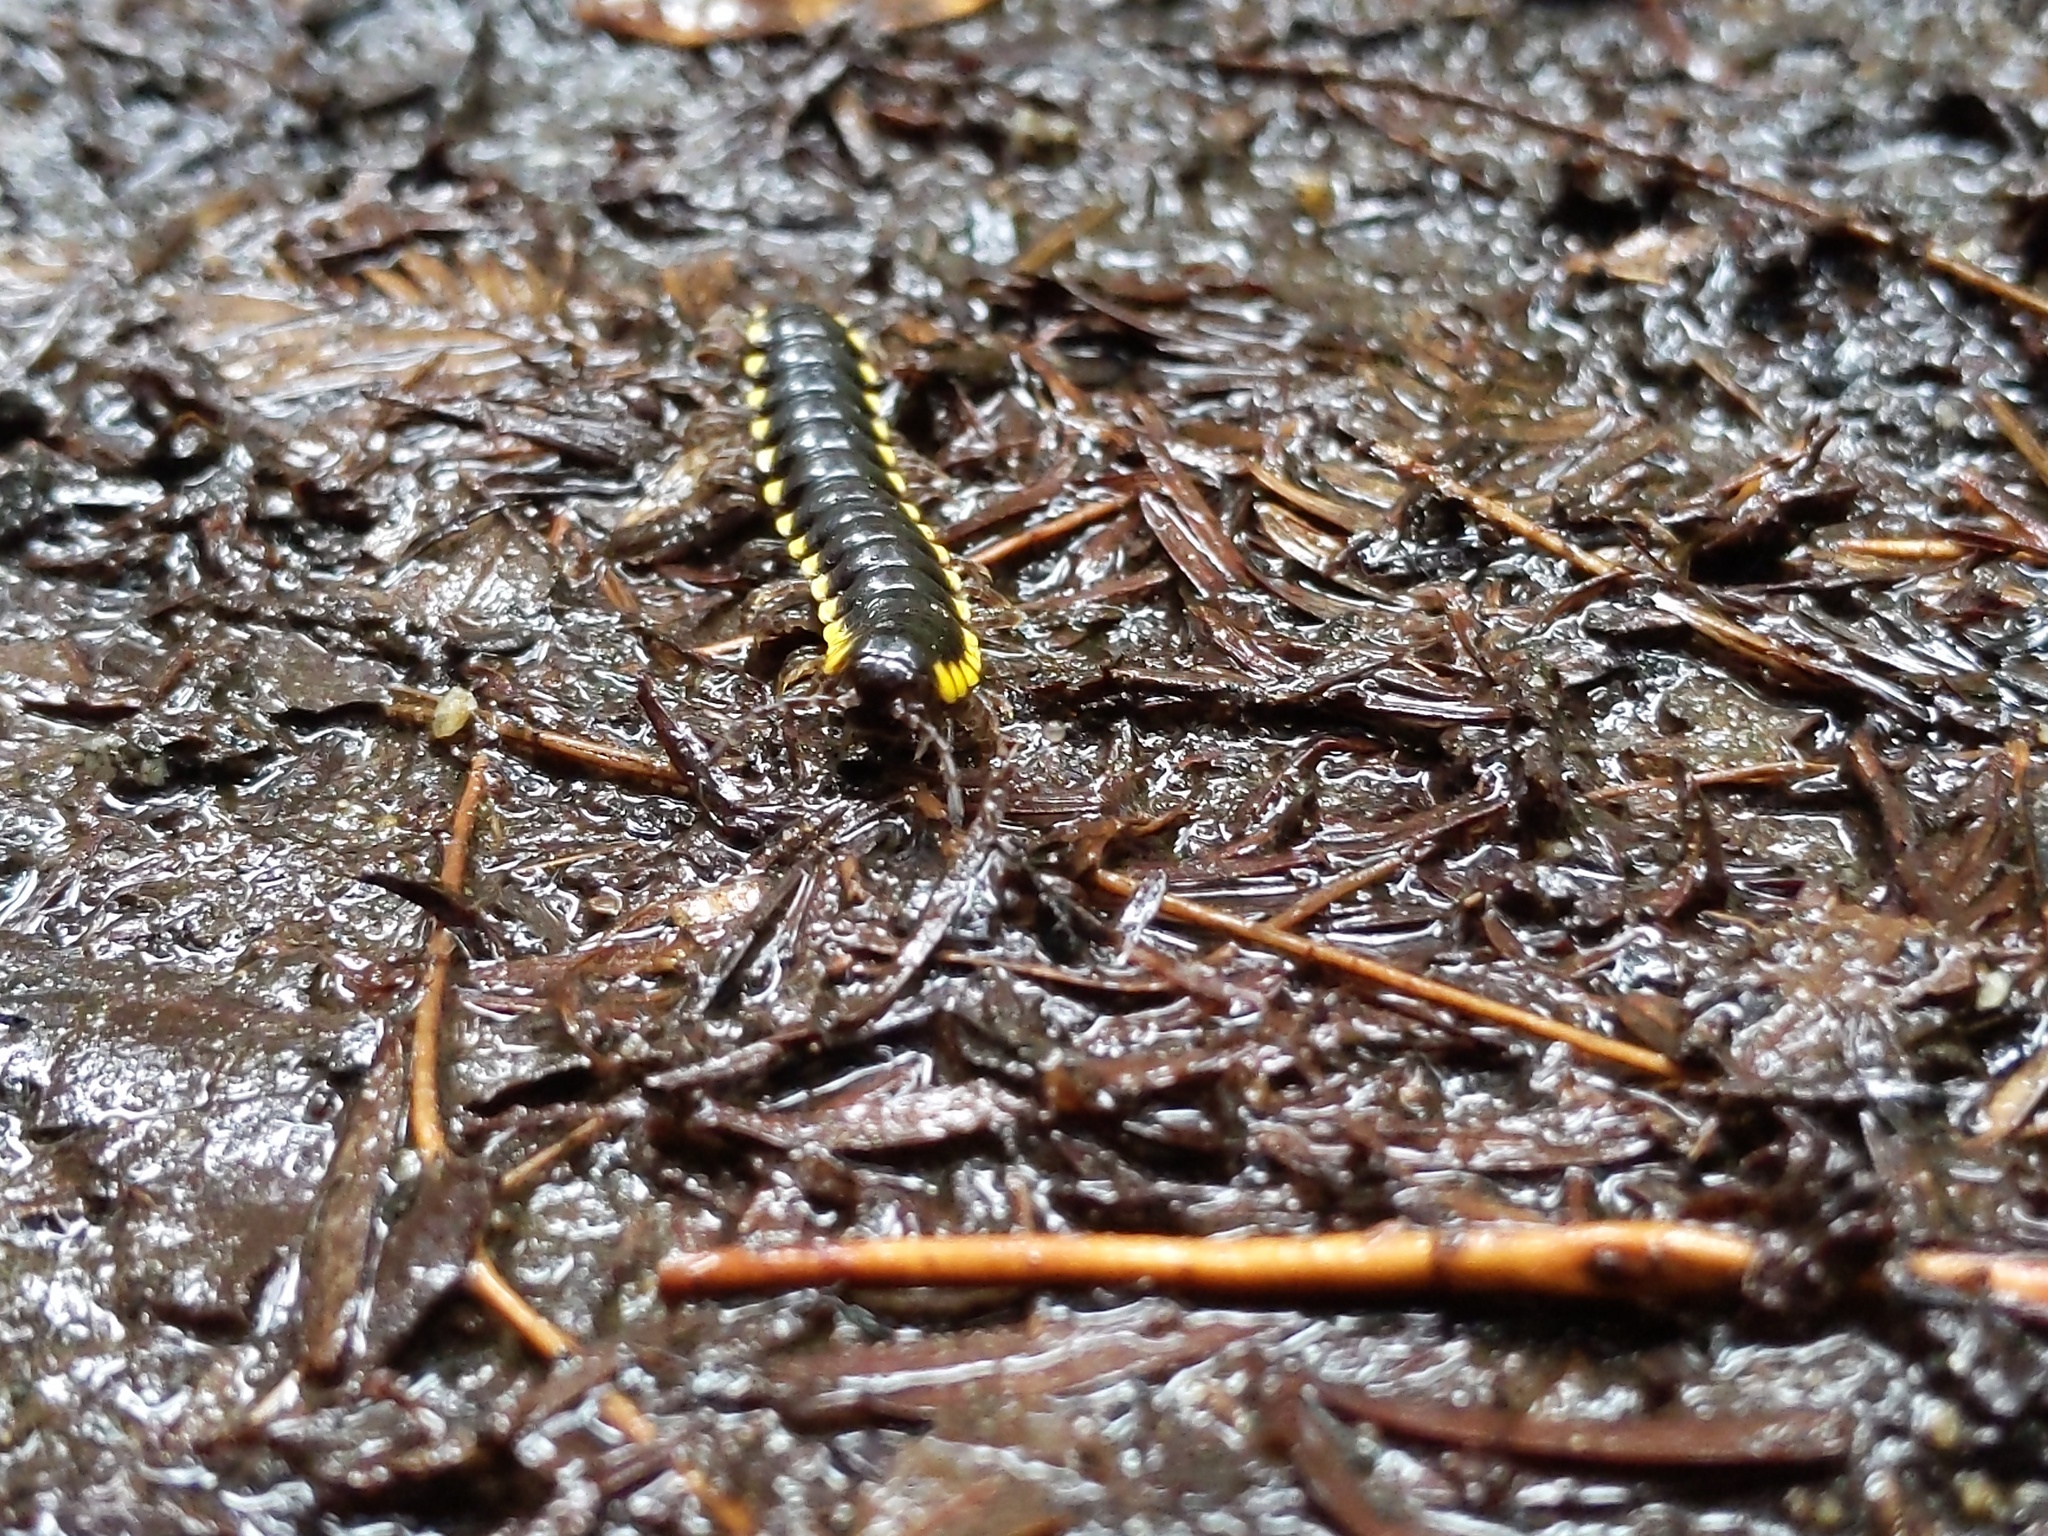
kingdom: Animalia
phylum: Arthropoda
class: Diplopoda
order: Polydesmida
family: Xystodesmidae
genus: Harpaphe
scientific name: Harpaphe haydeniana
